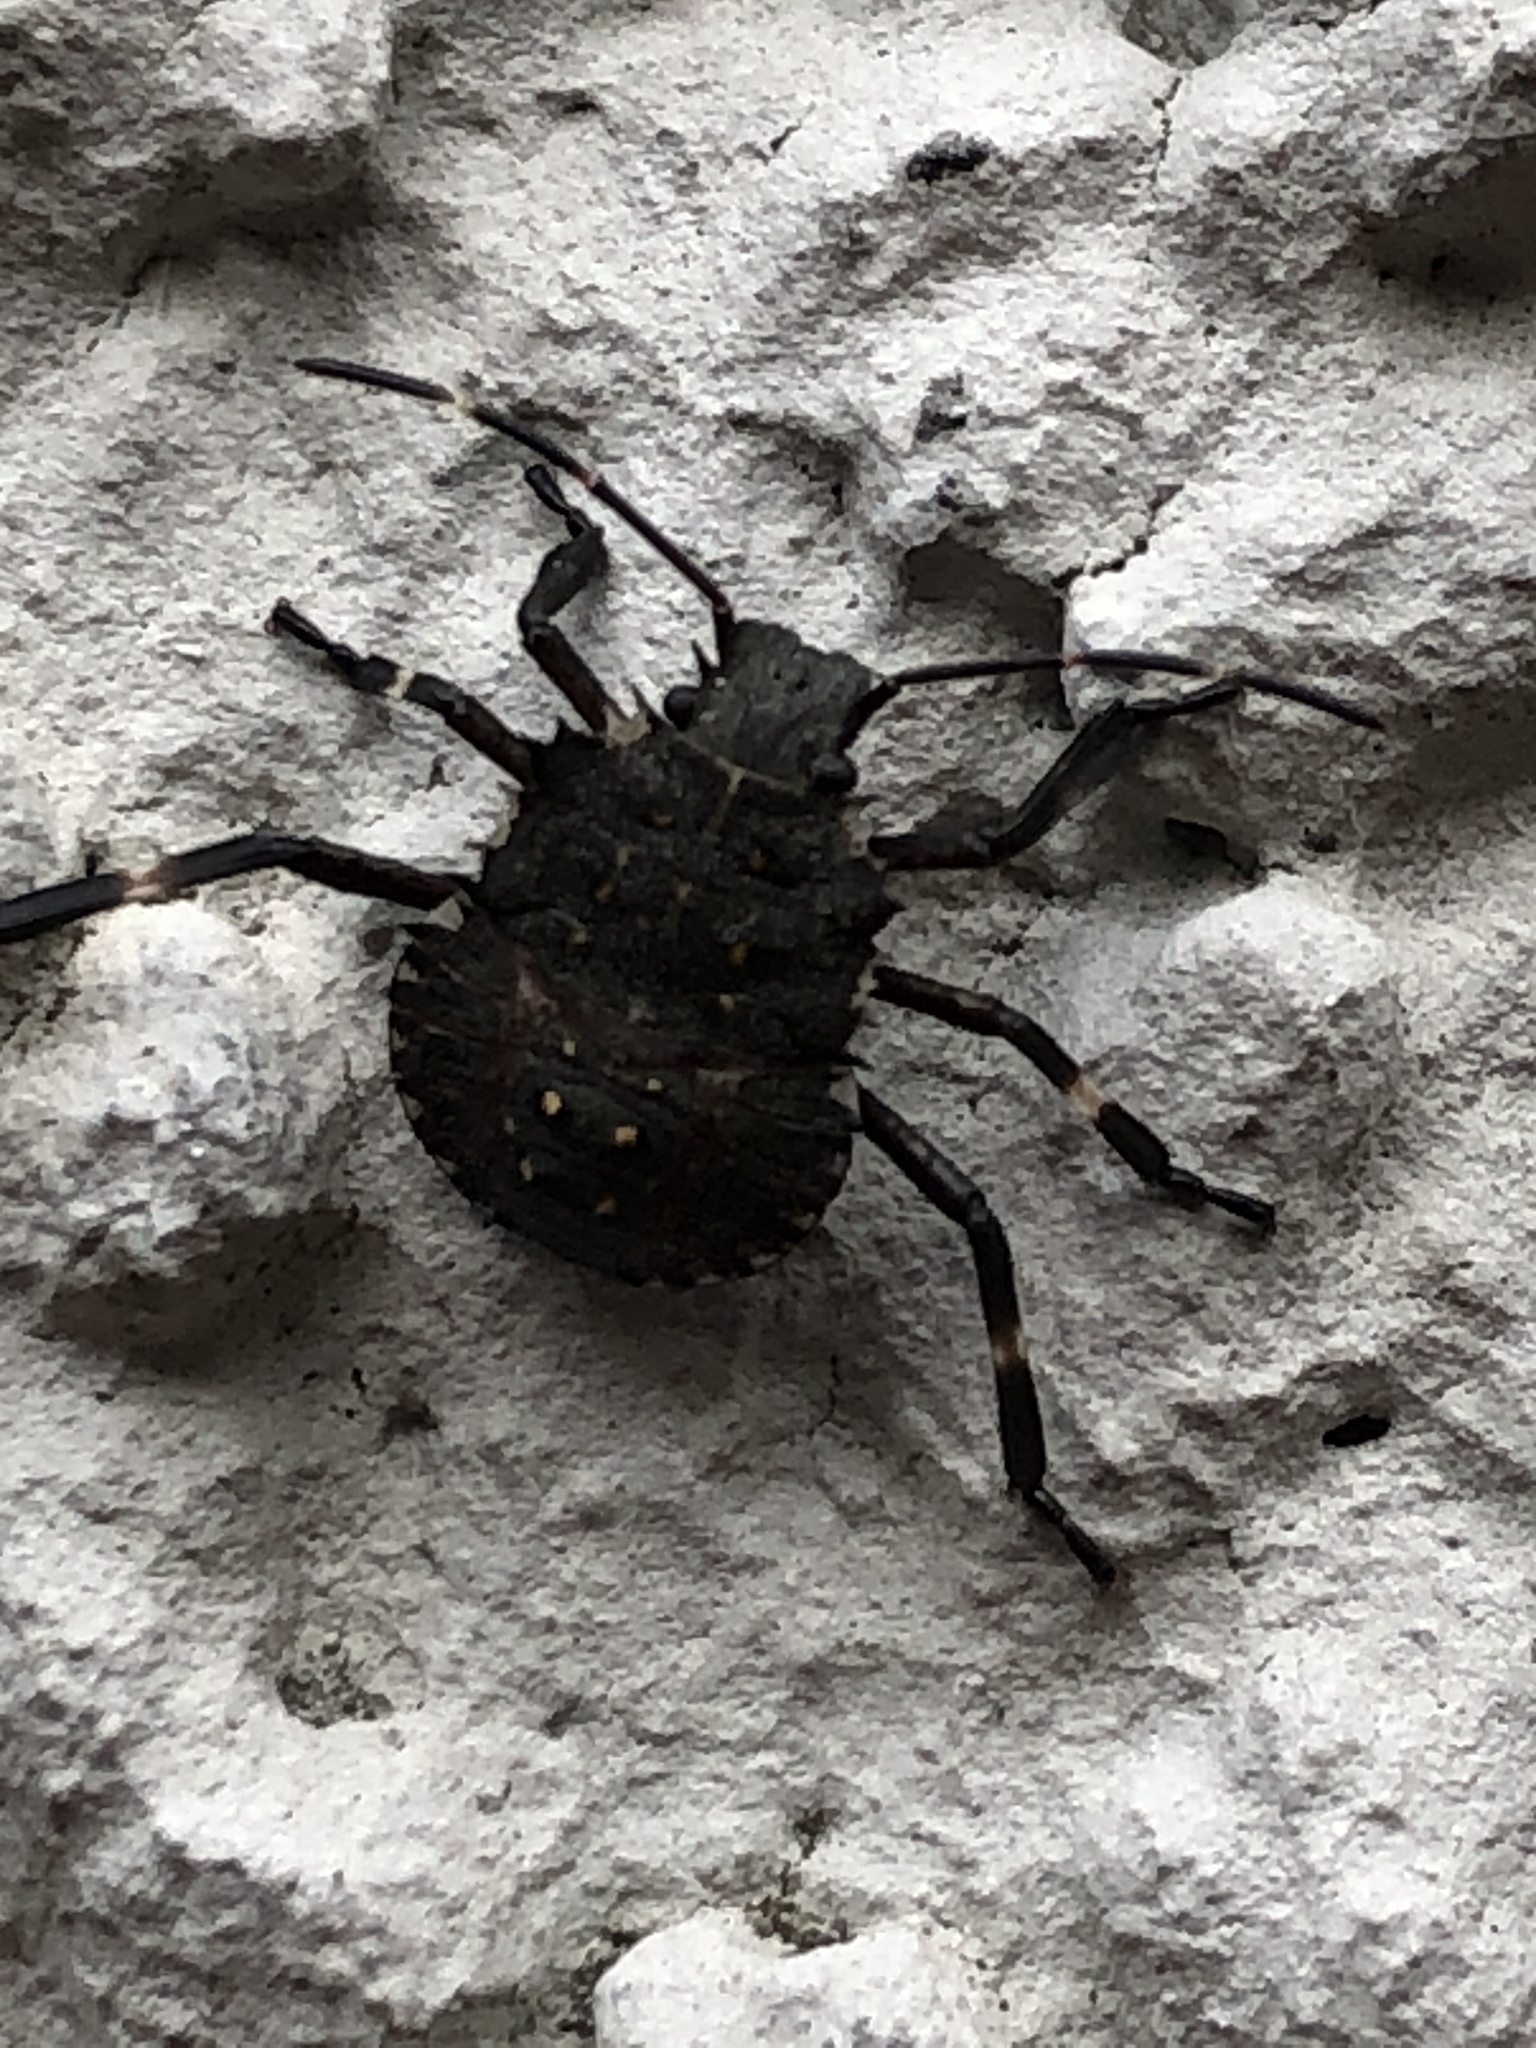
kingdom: Animalia
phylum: Arthropoda
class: Insecta
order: Hemiptera
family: Pentatomidae
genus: Halyomorpha
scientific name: Halyomorpha halys
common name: Brown marmorated stink bug
